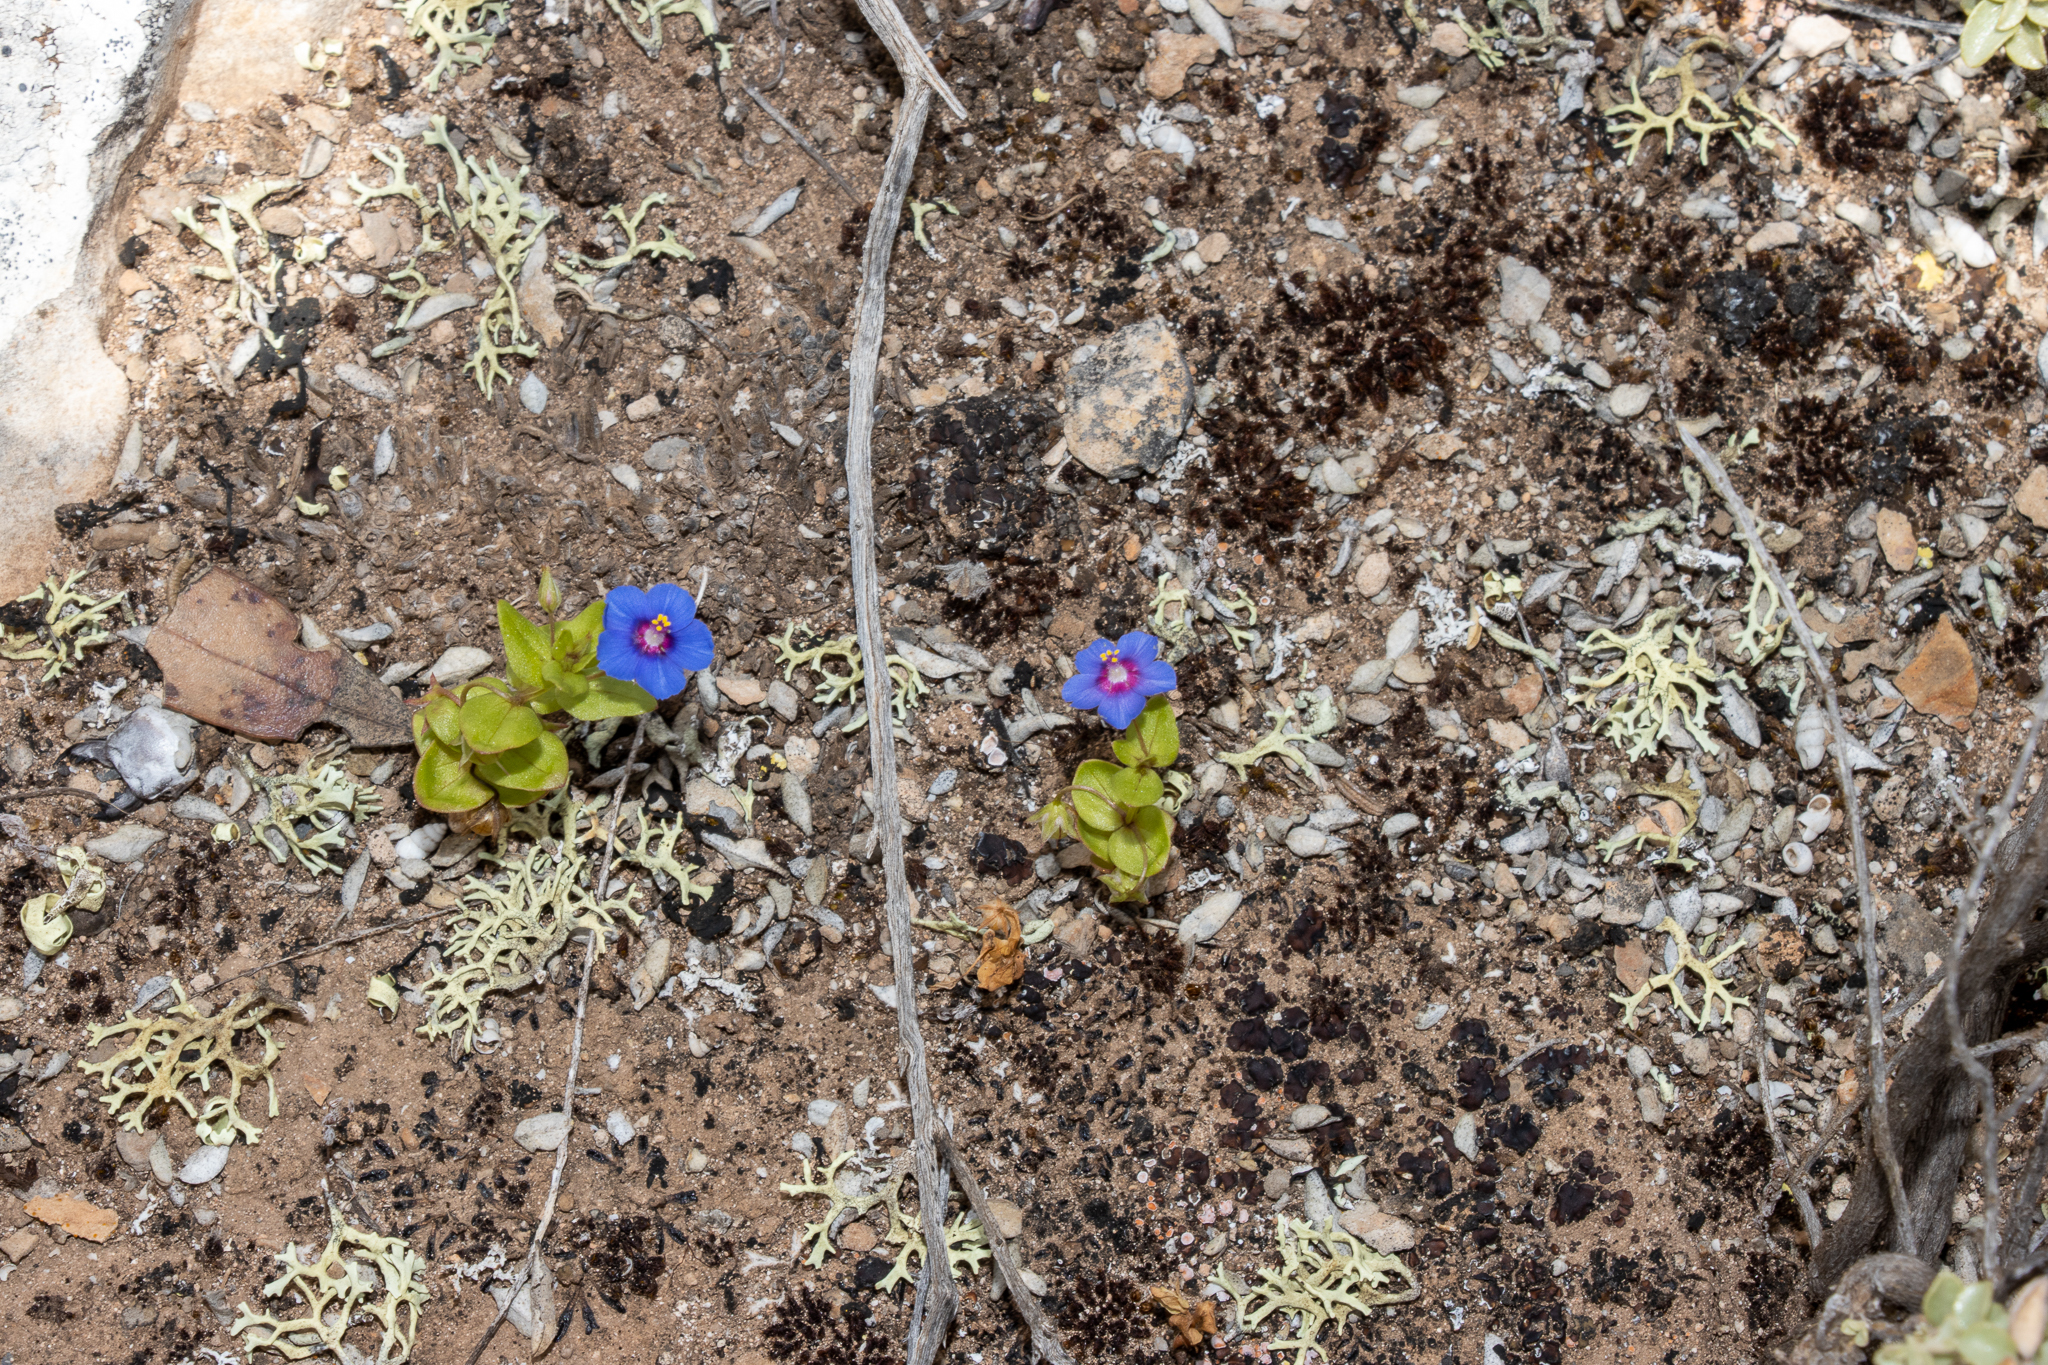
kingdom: Plantae
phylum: Tracheophyta
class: Magnoliopsida
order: Ericales
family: Primulaceae
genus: Lysimachia
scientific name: Lysimachia loeflingii
